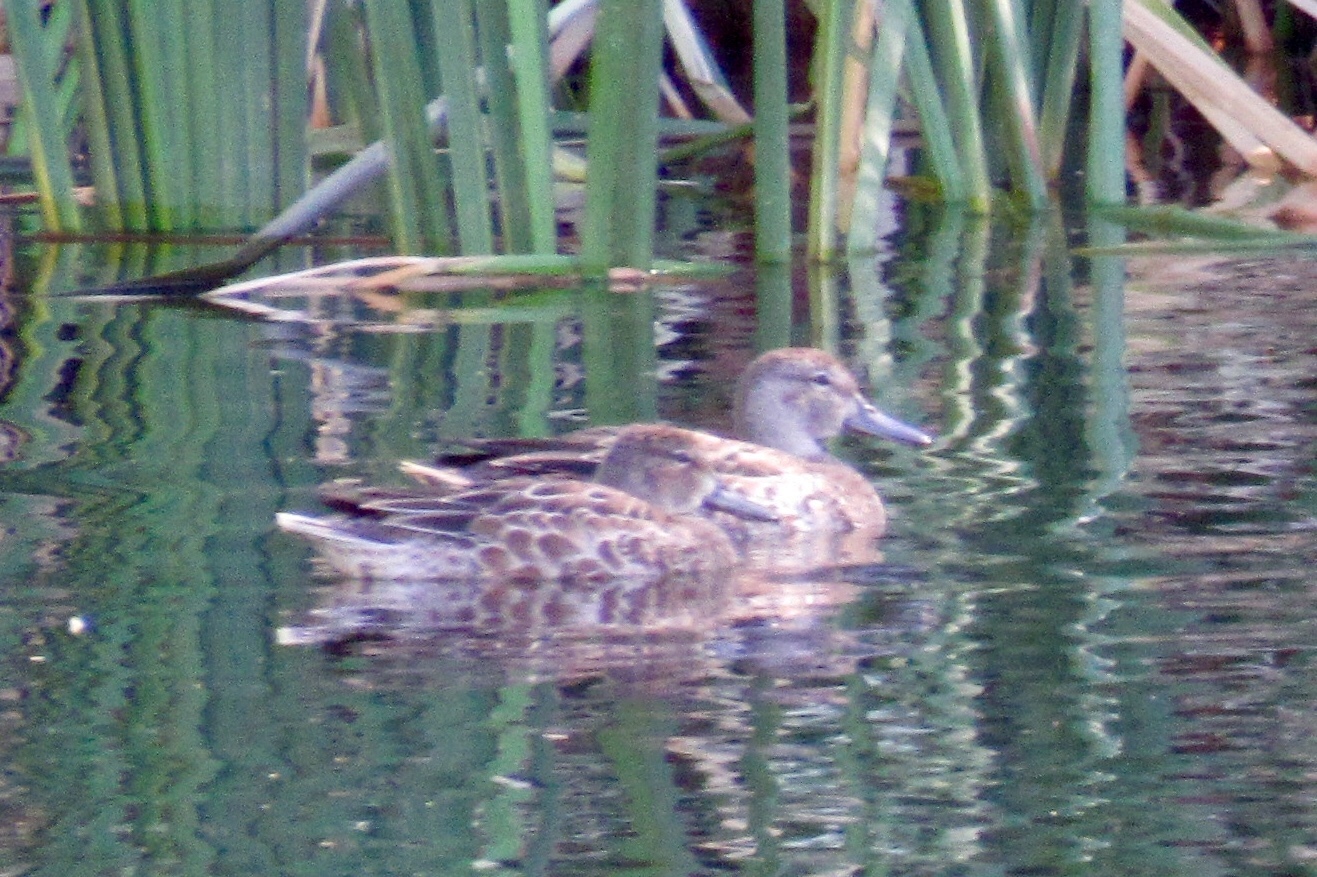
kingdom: Animalia
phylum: Chordata
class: Aves
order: Anseriformes
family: Anatidae
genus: Spatula
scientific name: Spatula cyanoptera
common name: Cinnamon teal
